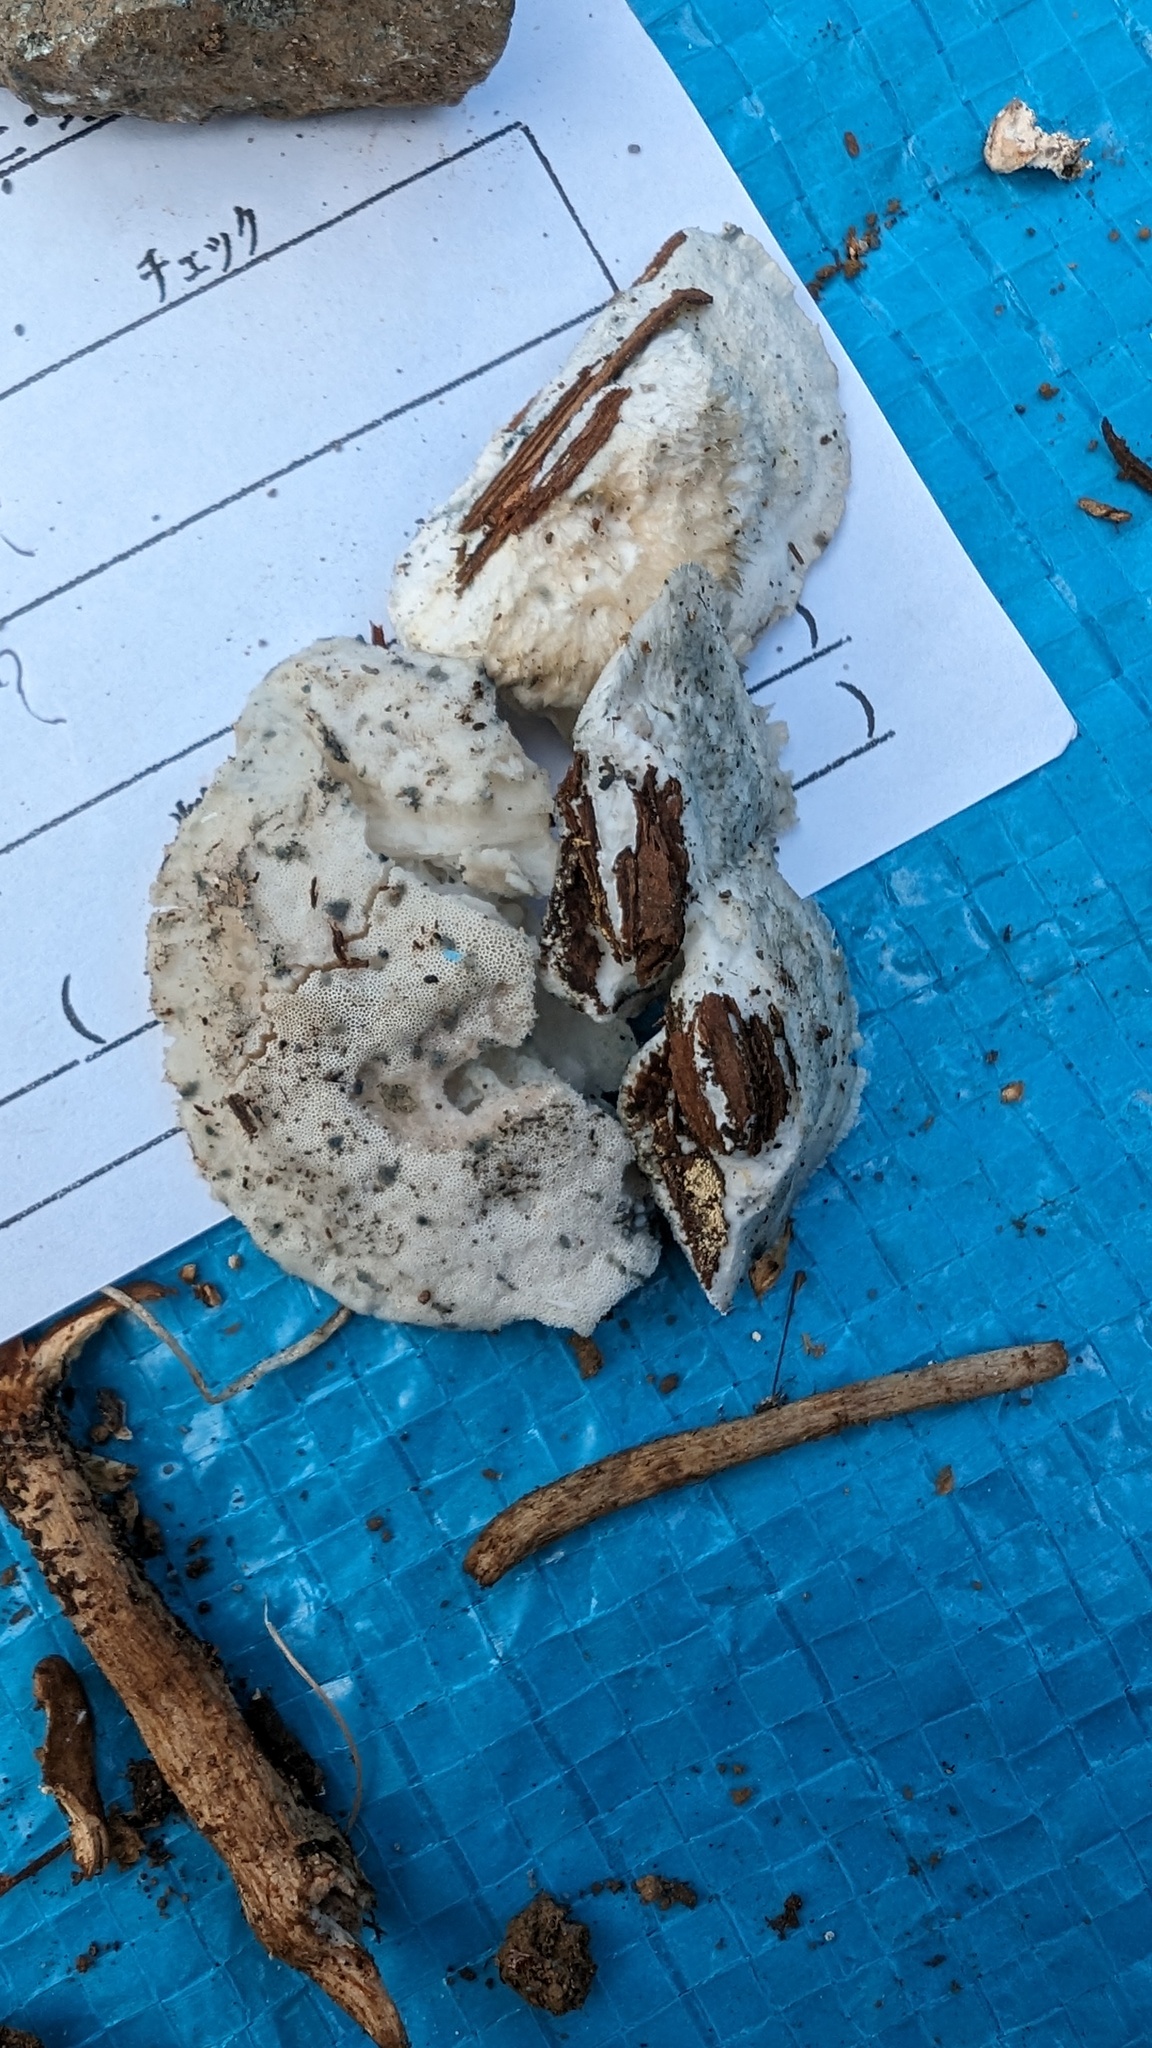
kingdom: Fungi
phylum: Basidiomycota
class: Agaricomycetes
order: Polyporales
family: Polyporaceae
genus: Cyanosporus
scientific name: Cyanosporus caesius
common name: Blue cheese polypore
